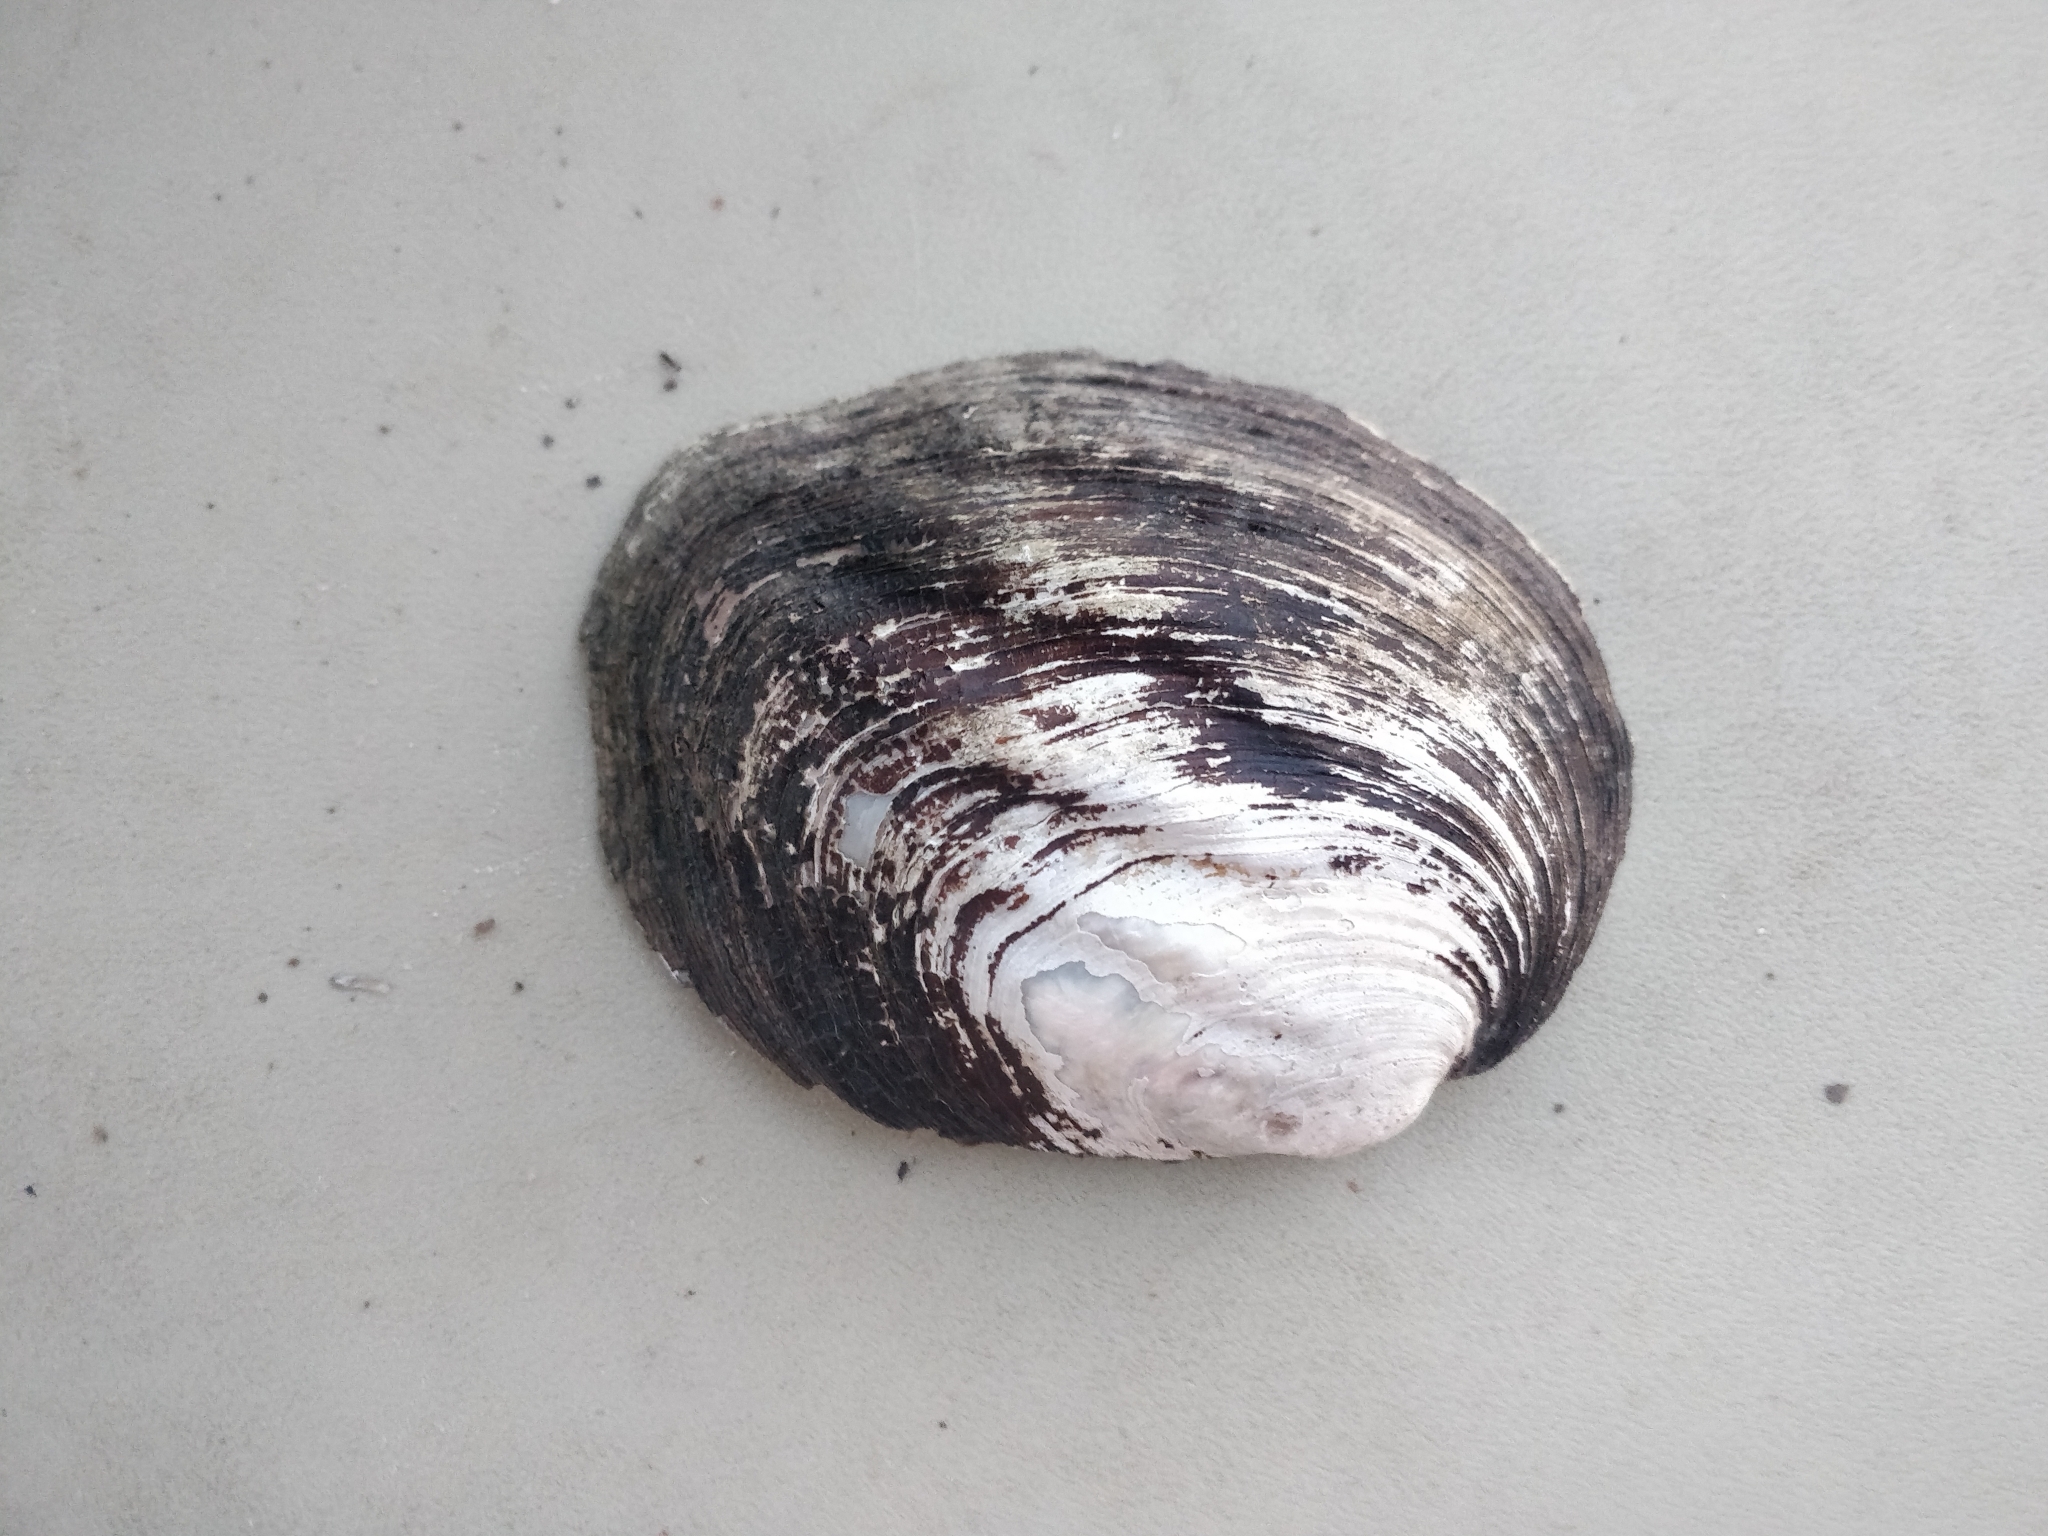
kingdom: Animalia
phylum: Mollusca
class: Bivalvia
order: Unionida
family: Unionidae
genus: Amblema
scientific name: Amblema plicata
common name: Threeridge
